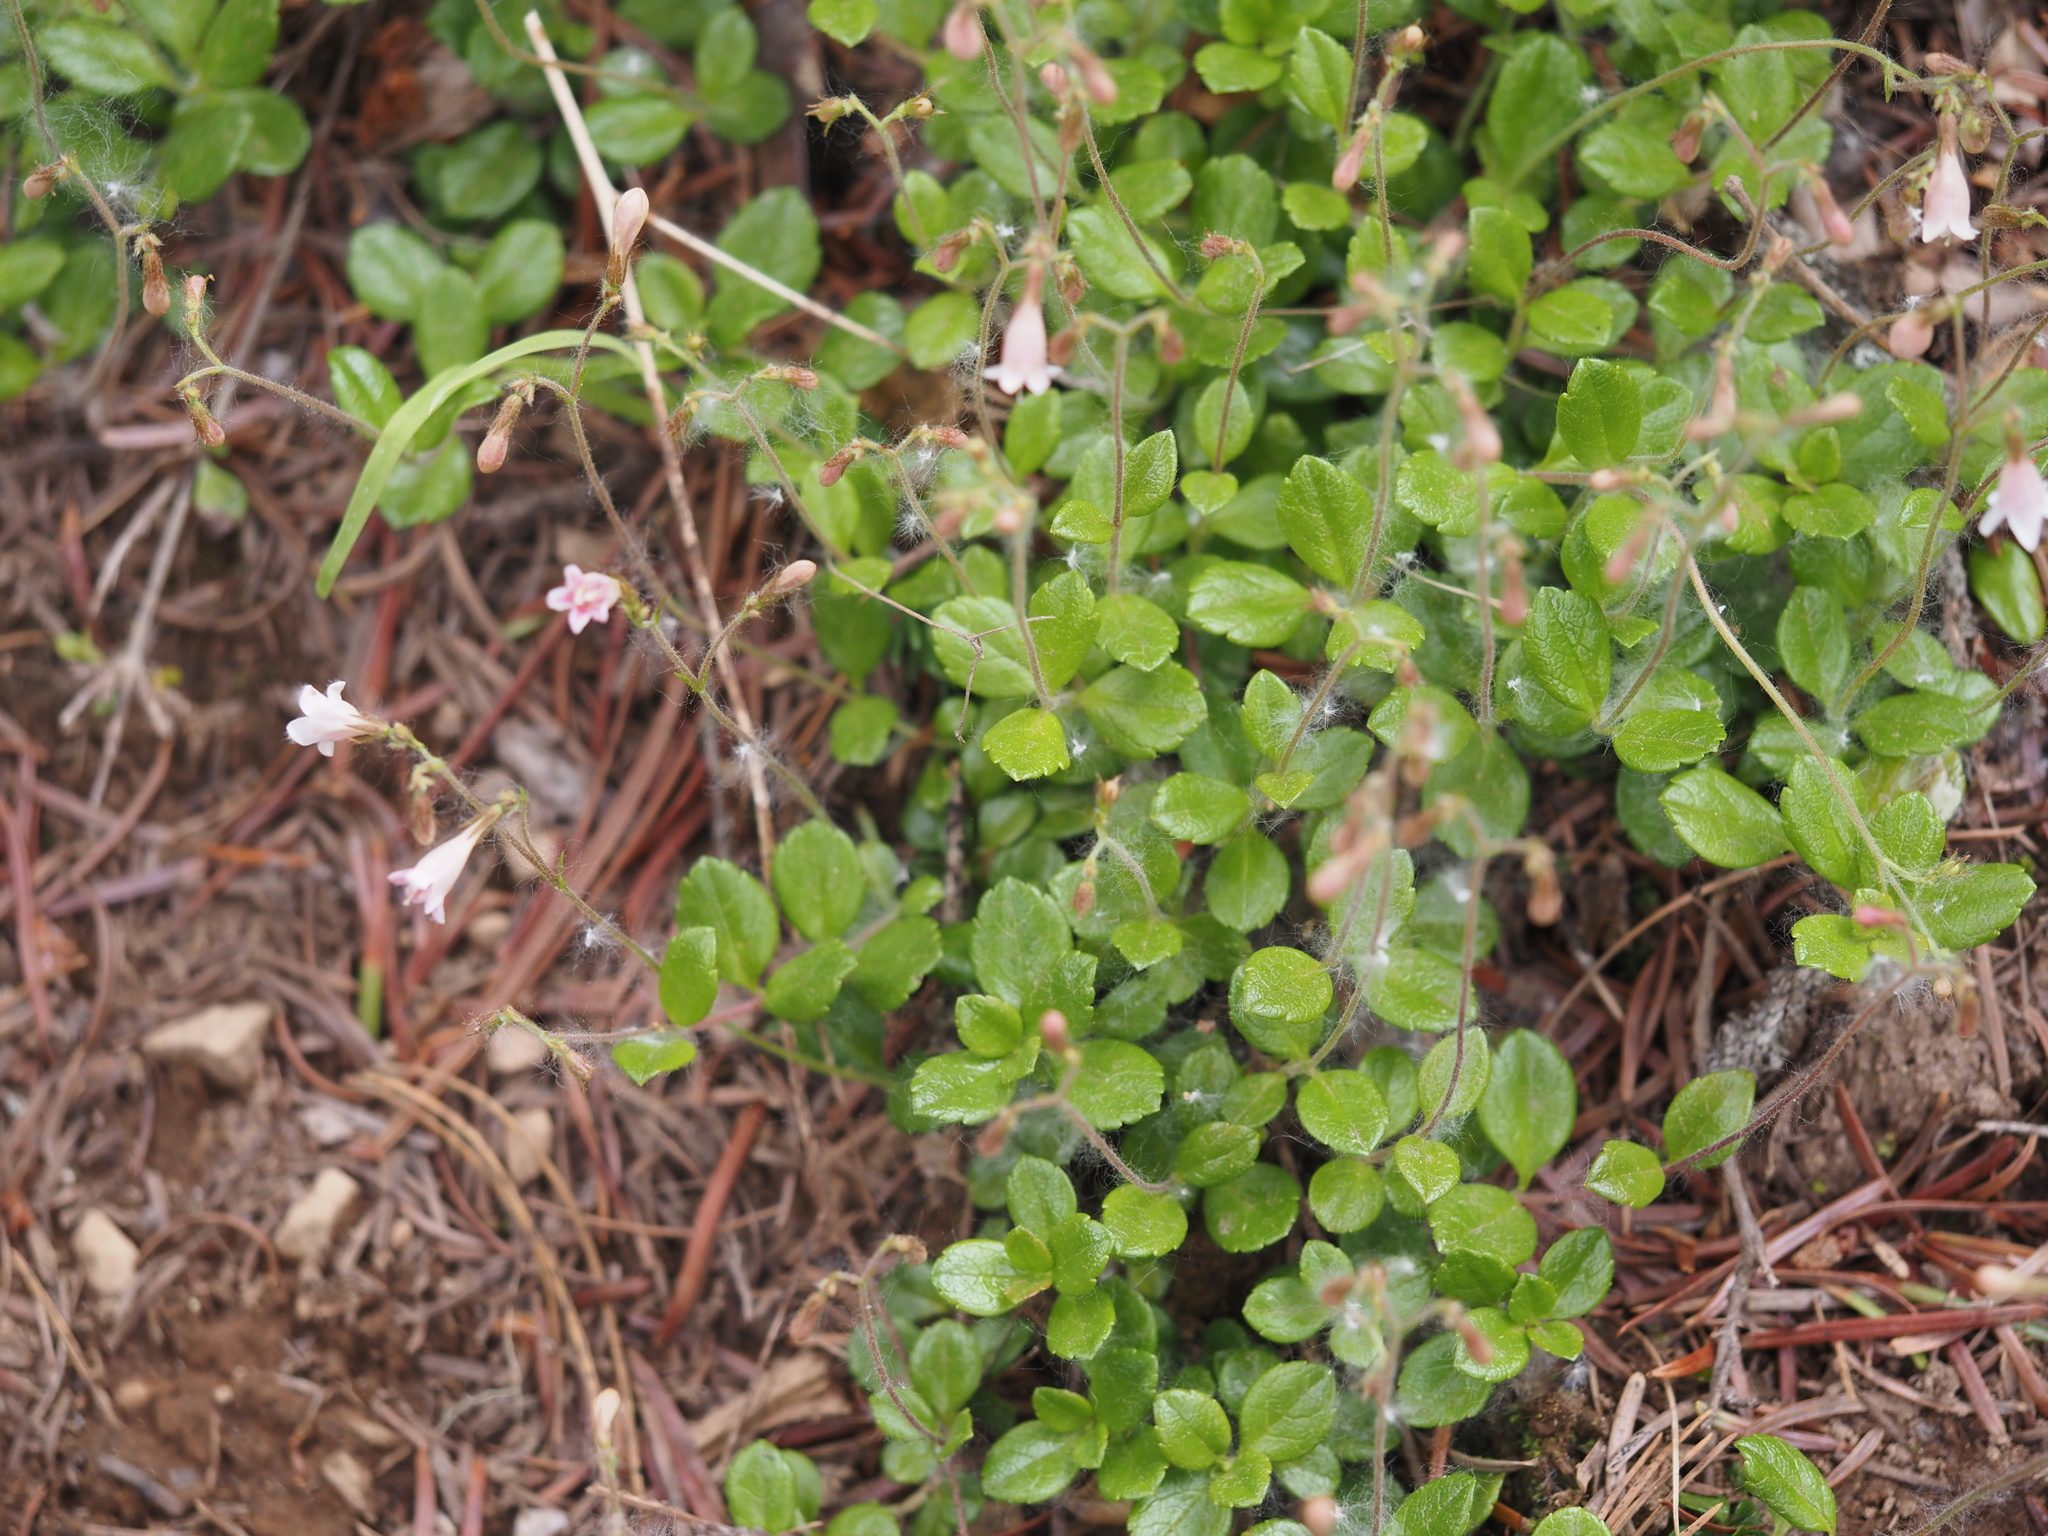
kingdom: Plantae
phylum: Tracheophyta
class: Magnoliopsida
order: Dipsacales
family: Caprifoliaceae
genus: Linnaea
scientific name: Linnaea borealis
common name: Twinflower
